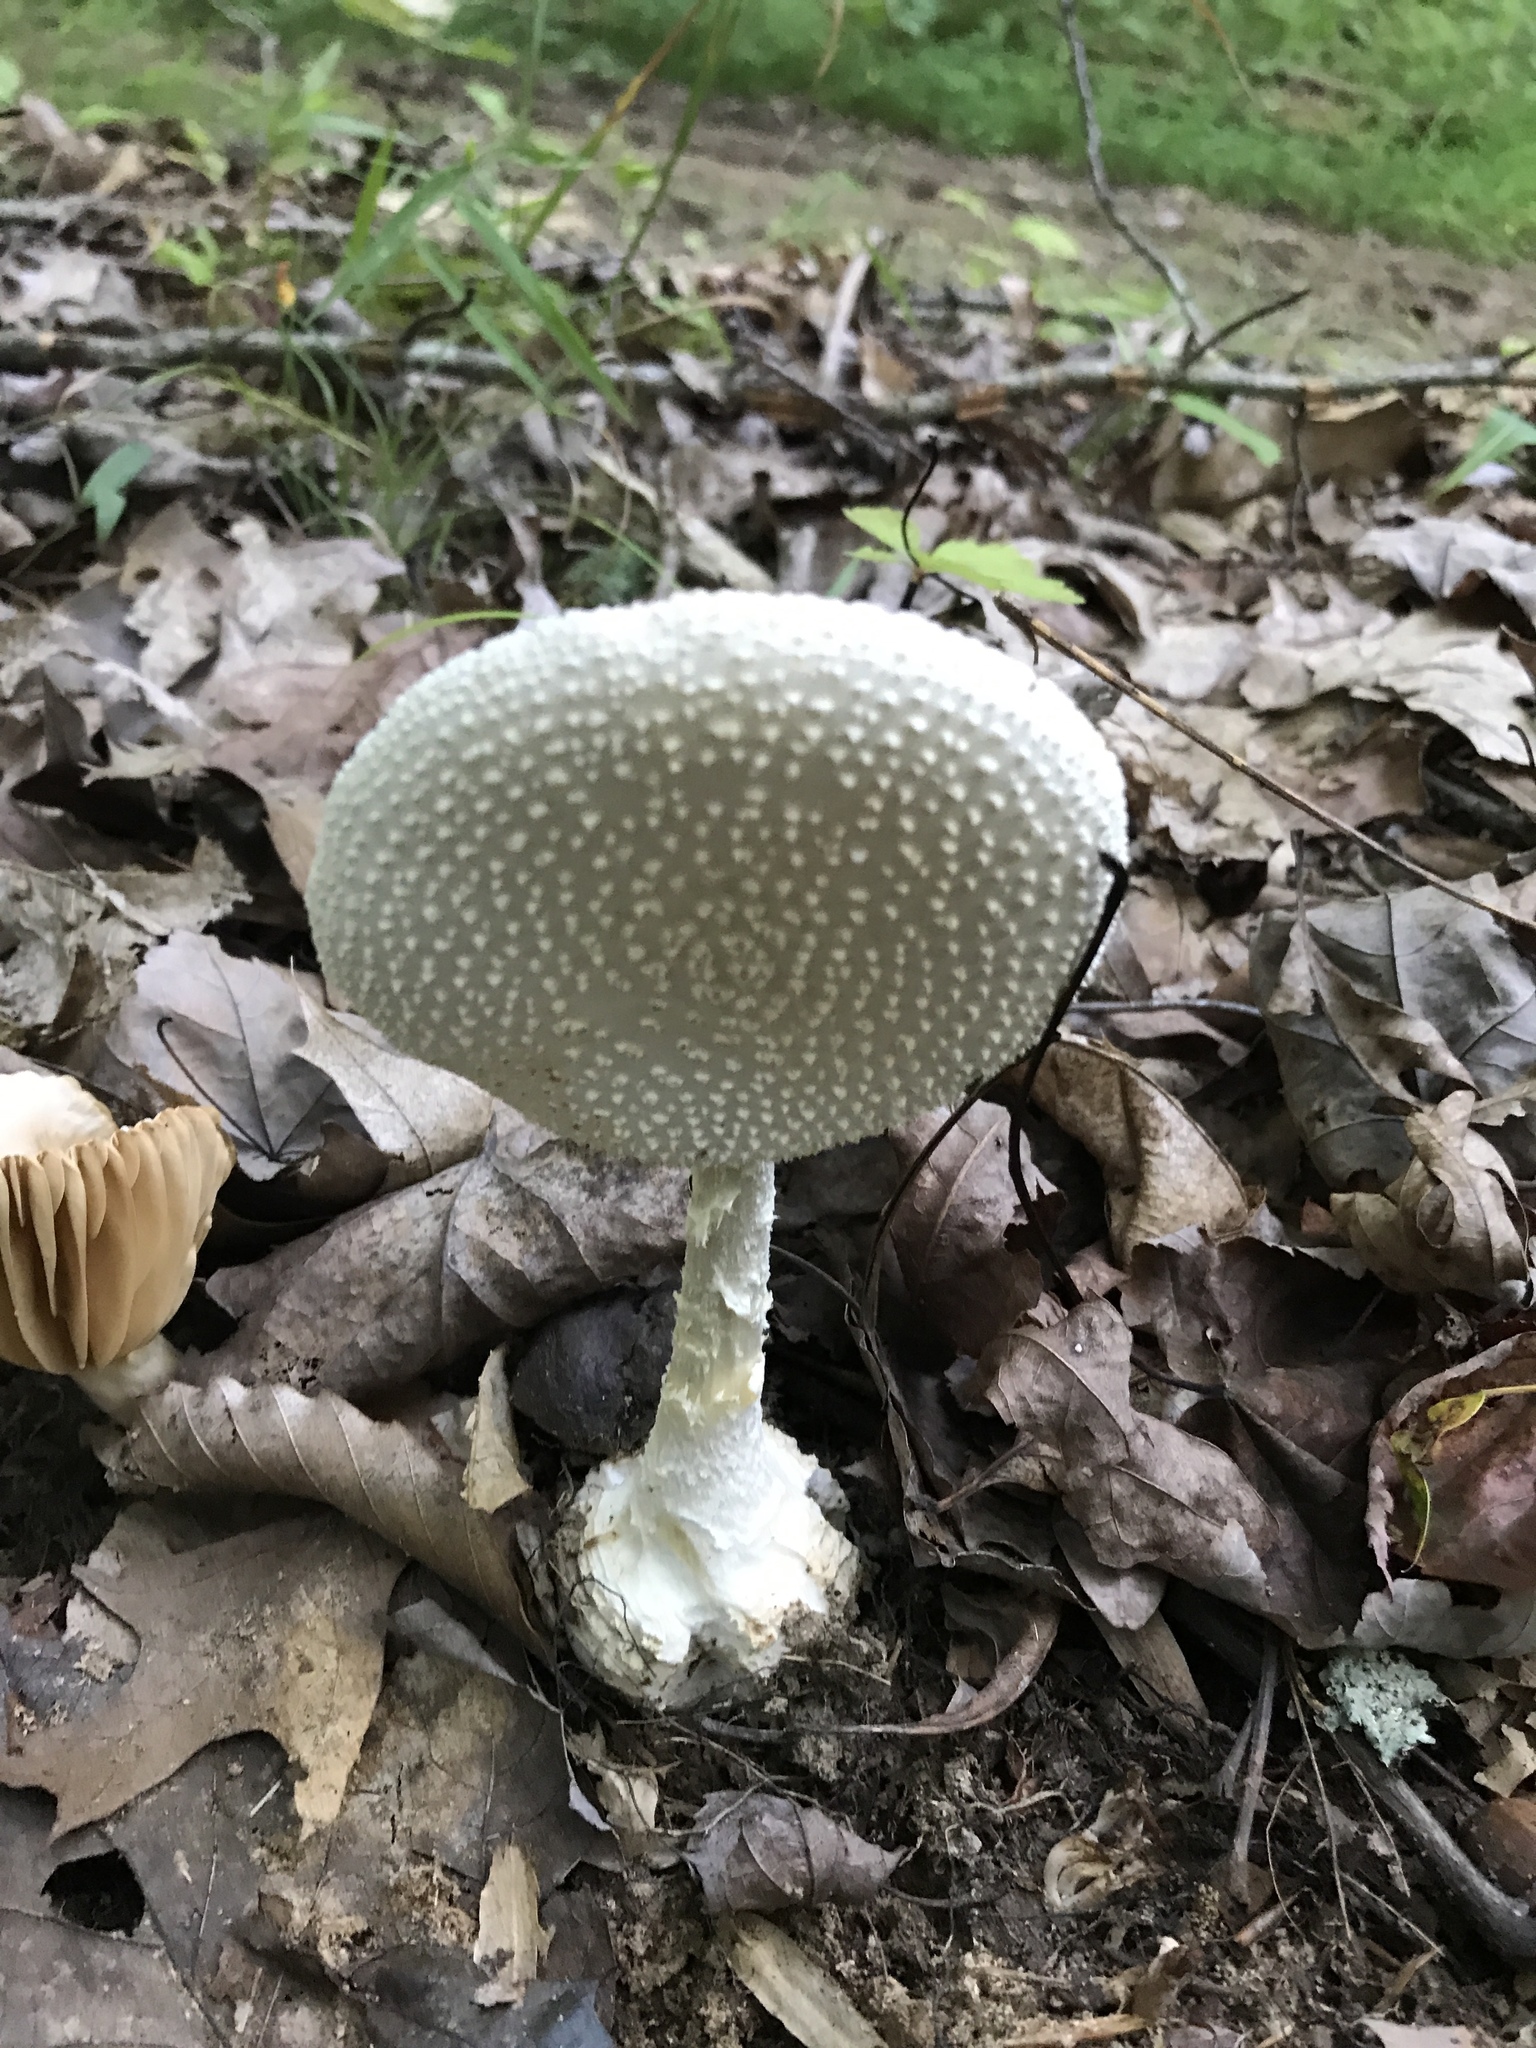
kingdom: Fungi
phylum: Basidiomycota
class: Agaricomycetes
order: Agaricales
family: Amanitaceae
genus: Amanita
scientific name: Amanita cokeri
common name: Coker's amanita
